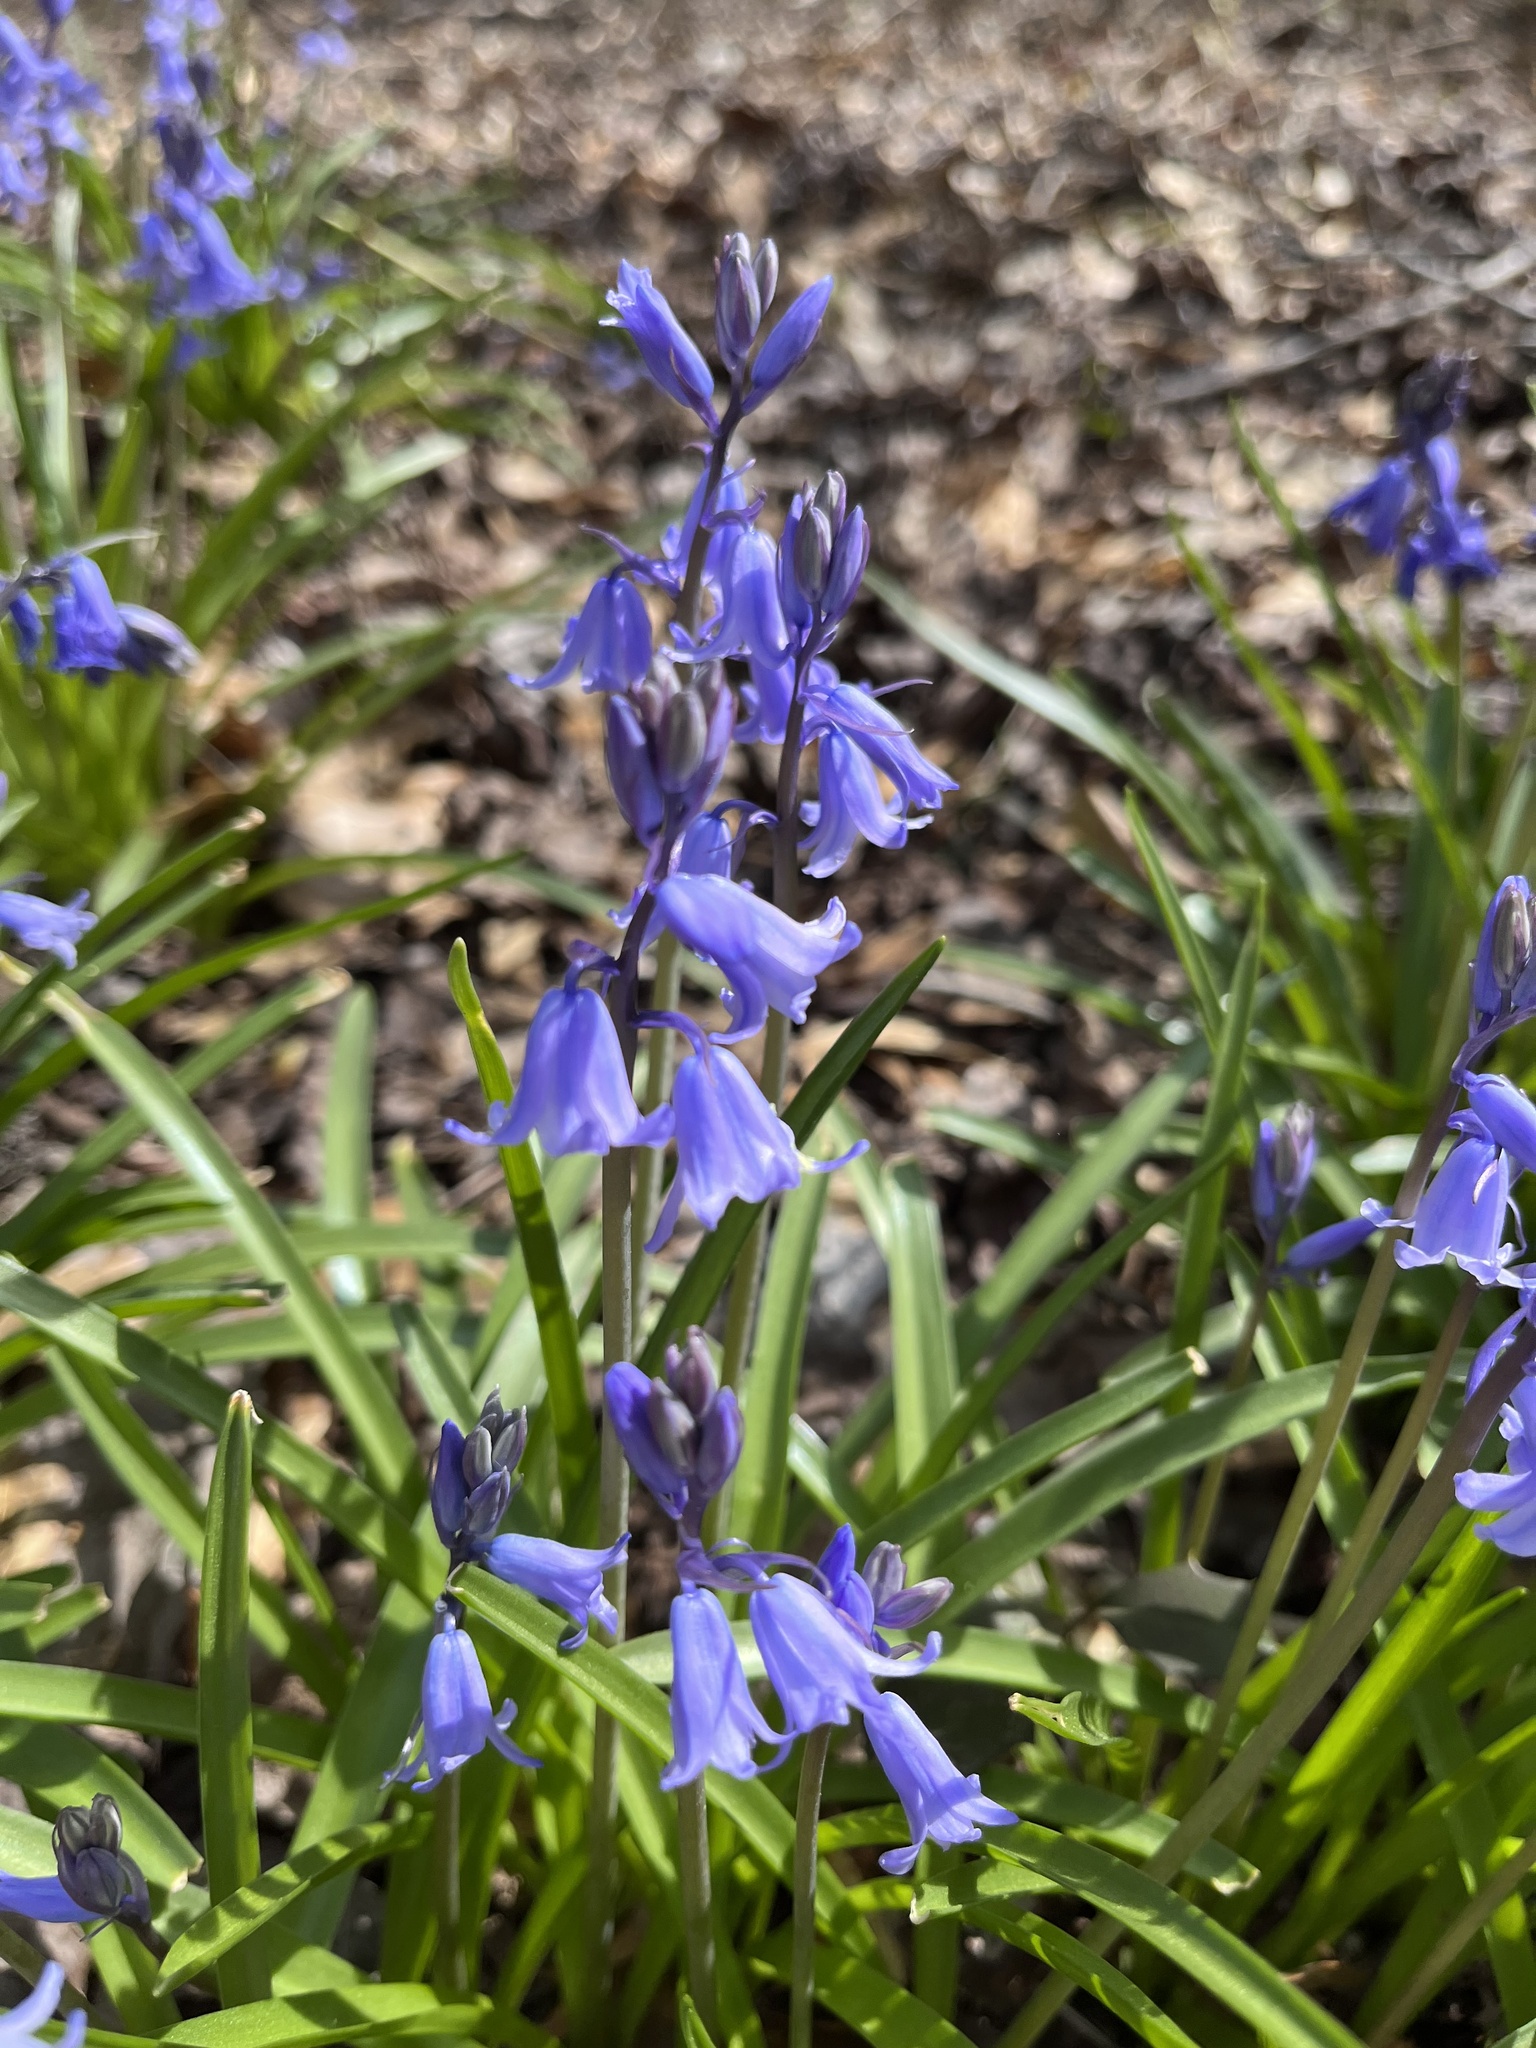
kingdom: Plantae
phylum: Tracheophyta
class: Liliopsida
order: Asparagales
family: Asparagaceae
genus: Hyacinthoides
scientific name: Hyacinthoides hispanica
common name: Spanish bluebell
